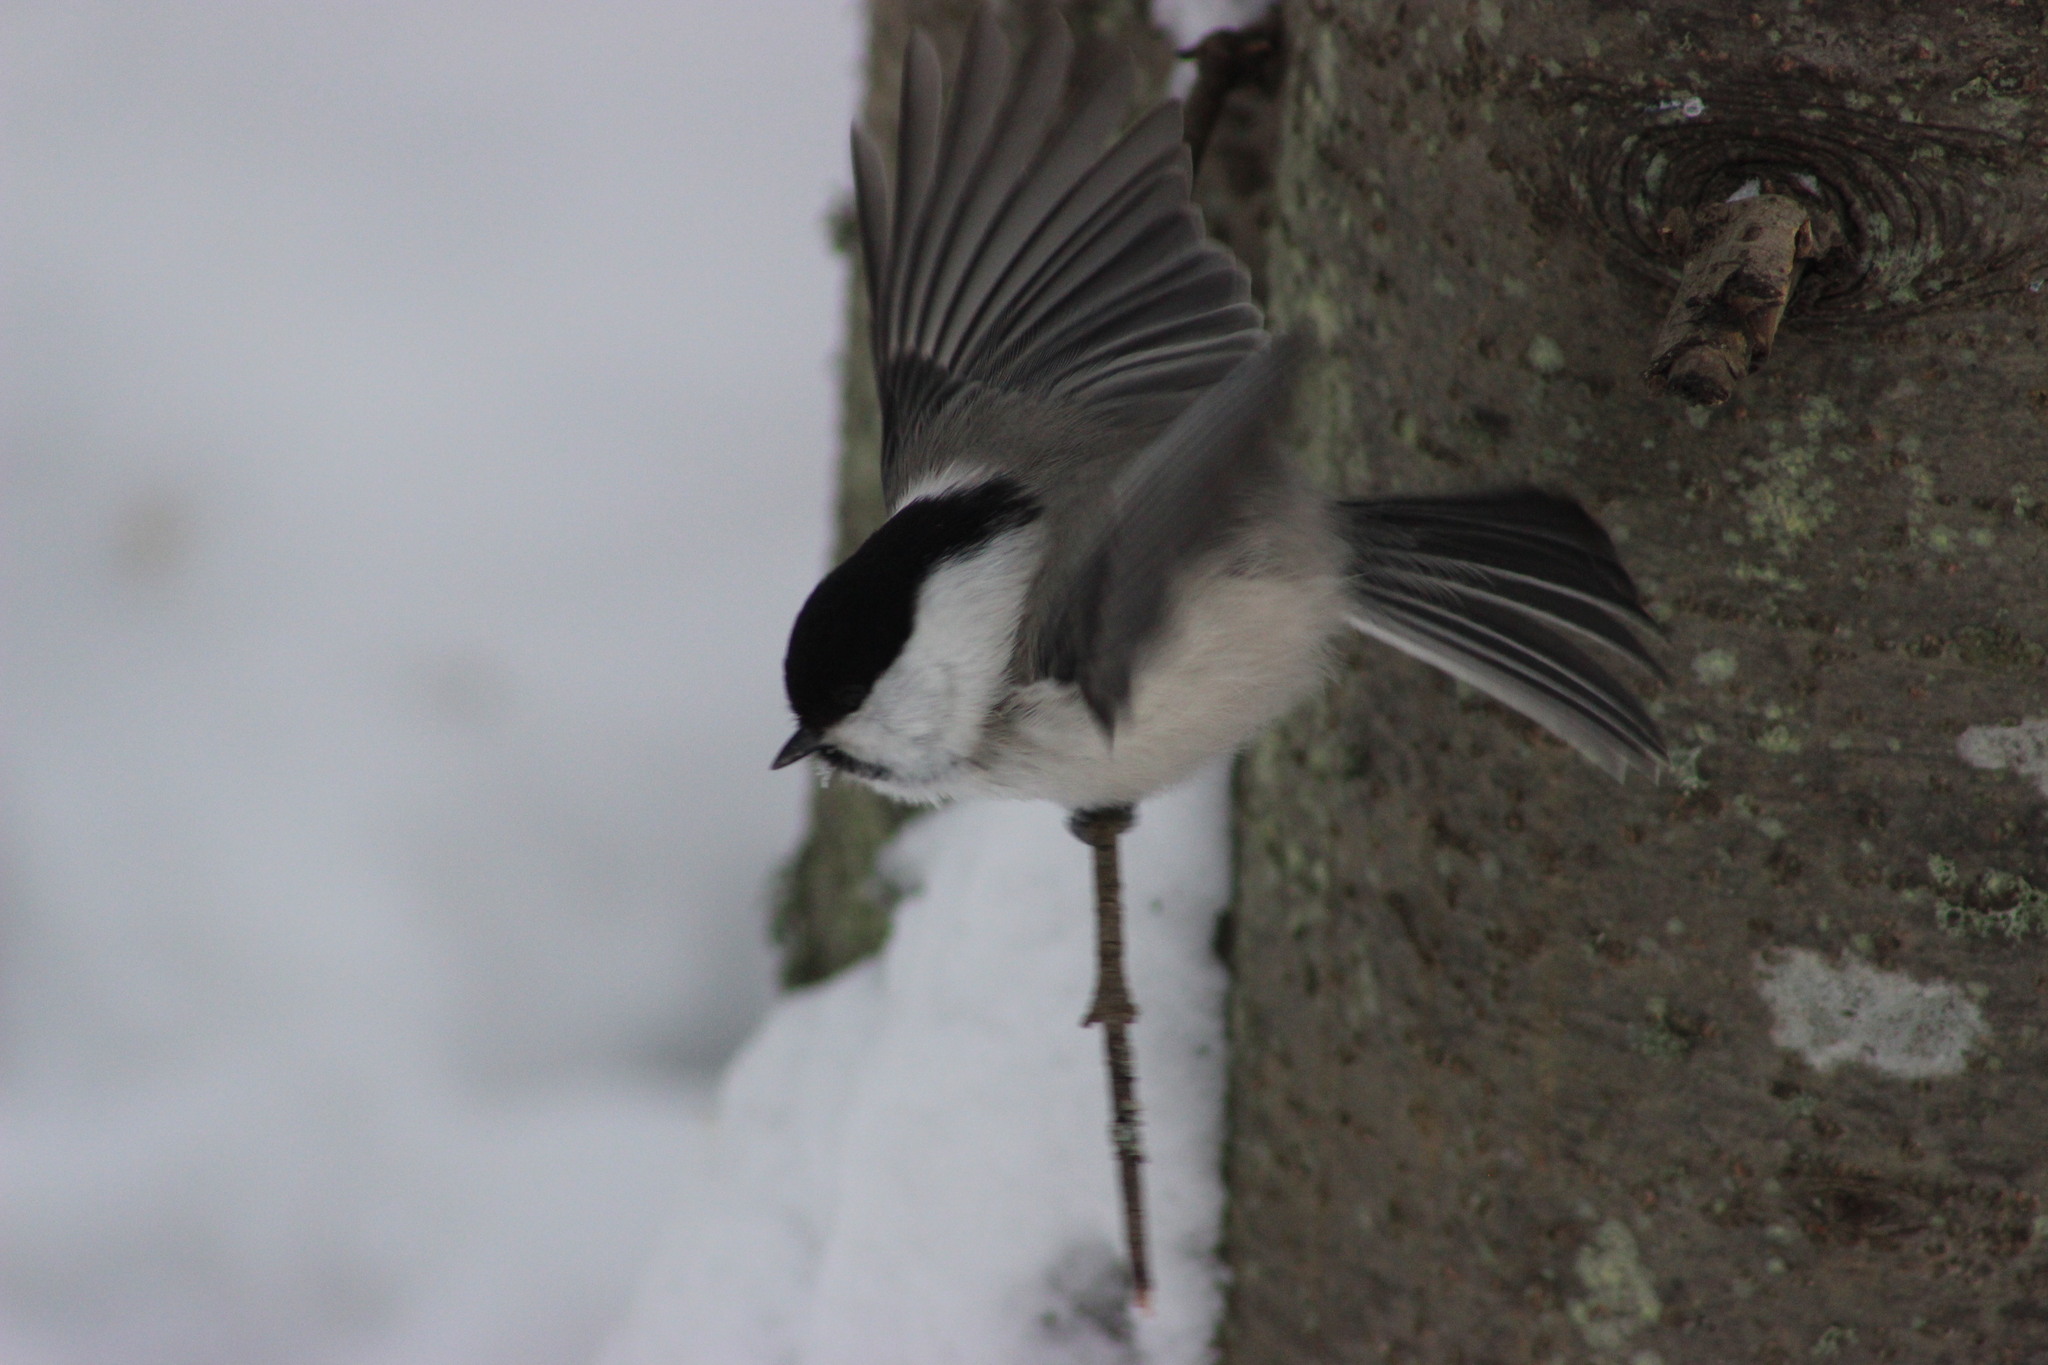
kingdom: Animalia
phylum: Chordata
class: Aves
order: Passeriformes
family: Paridae
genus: Poecile
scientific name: Poecile montanus
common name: Willow tit
